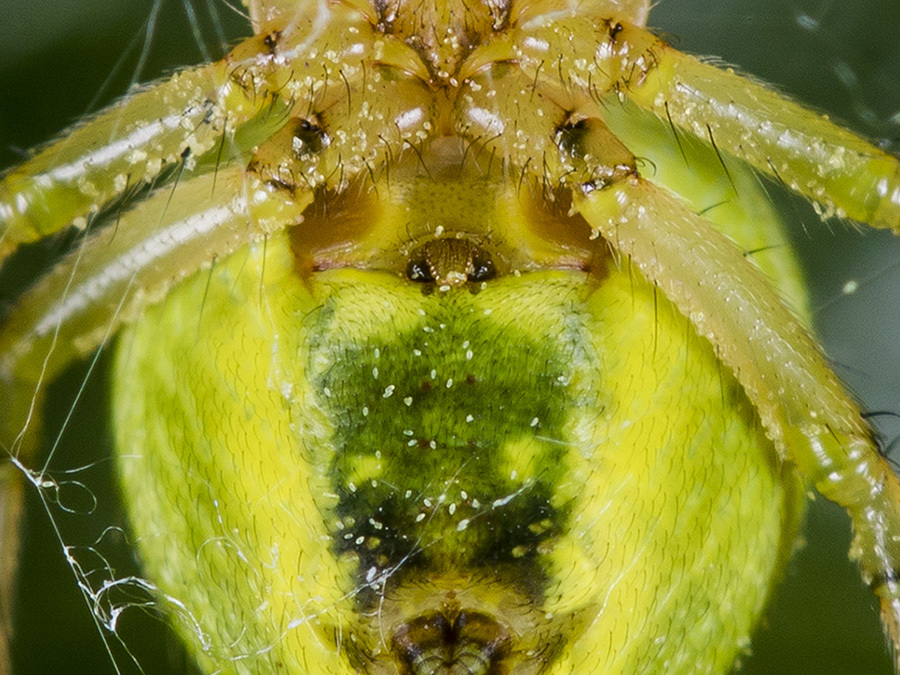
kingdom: Animalia
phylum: Arthropoda
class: Arachnida
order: Araneae
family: Araneidae
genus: Araniella
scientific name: Araniella villanii
